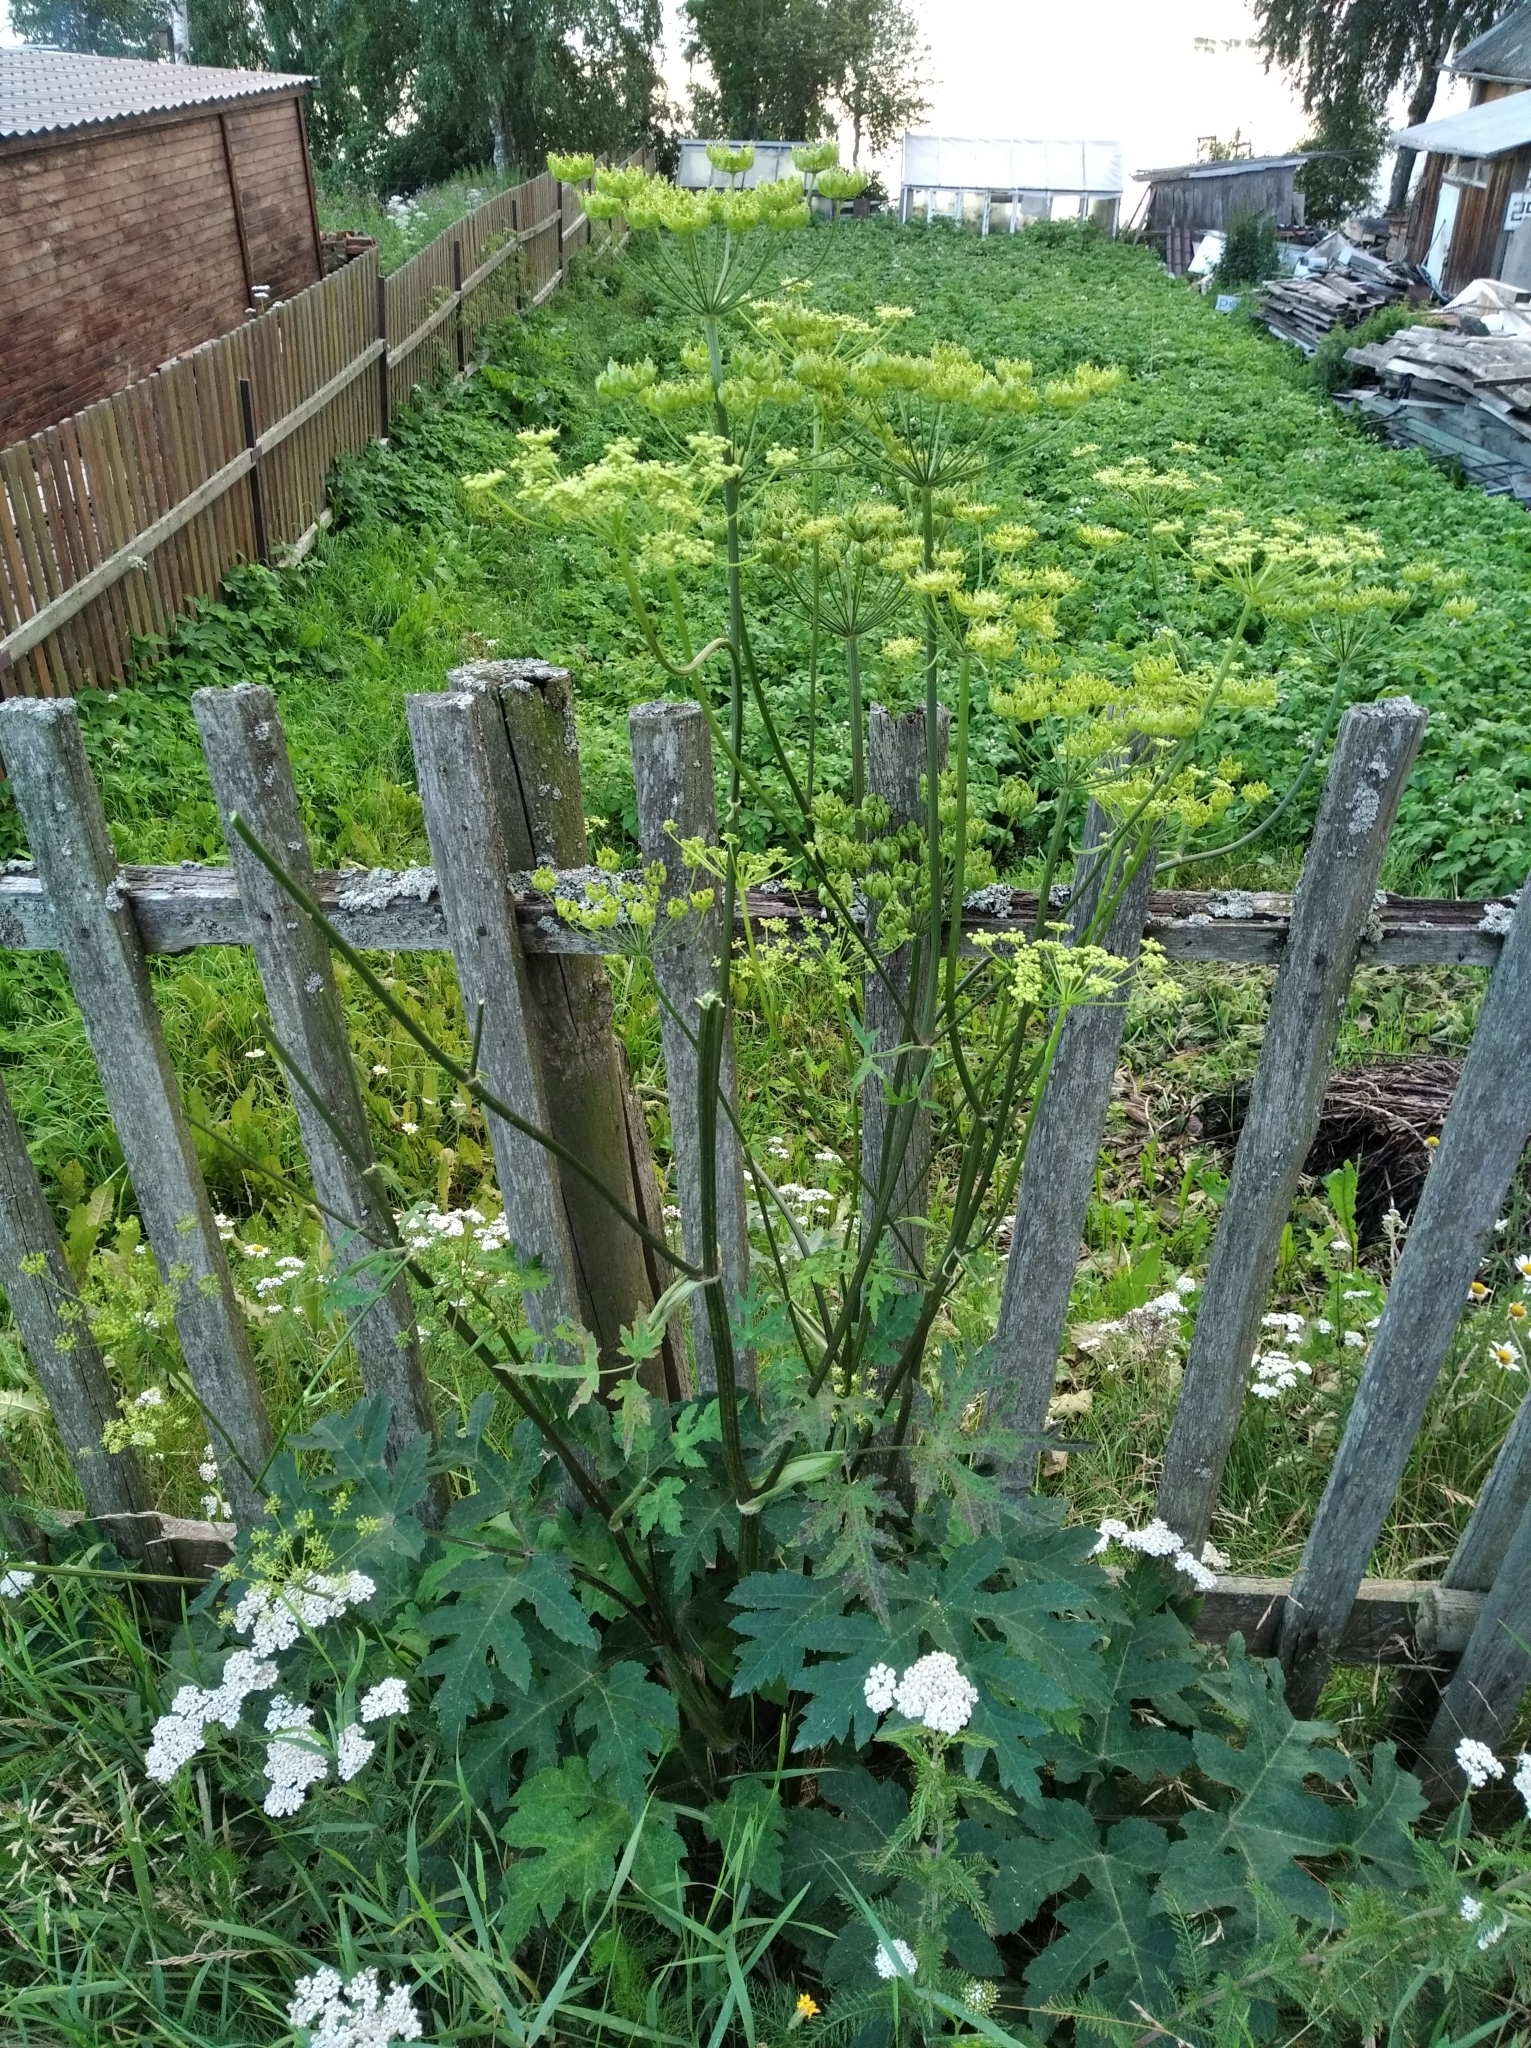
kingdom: Plantae
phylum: Tracheophyta
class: Magnoliopsida
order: Apiales
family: Apiaceae
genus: Heracleum
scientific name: Heracleum sphondylium
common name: Hogweed
